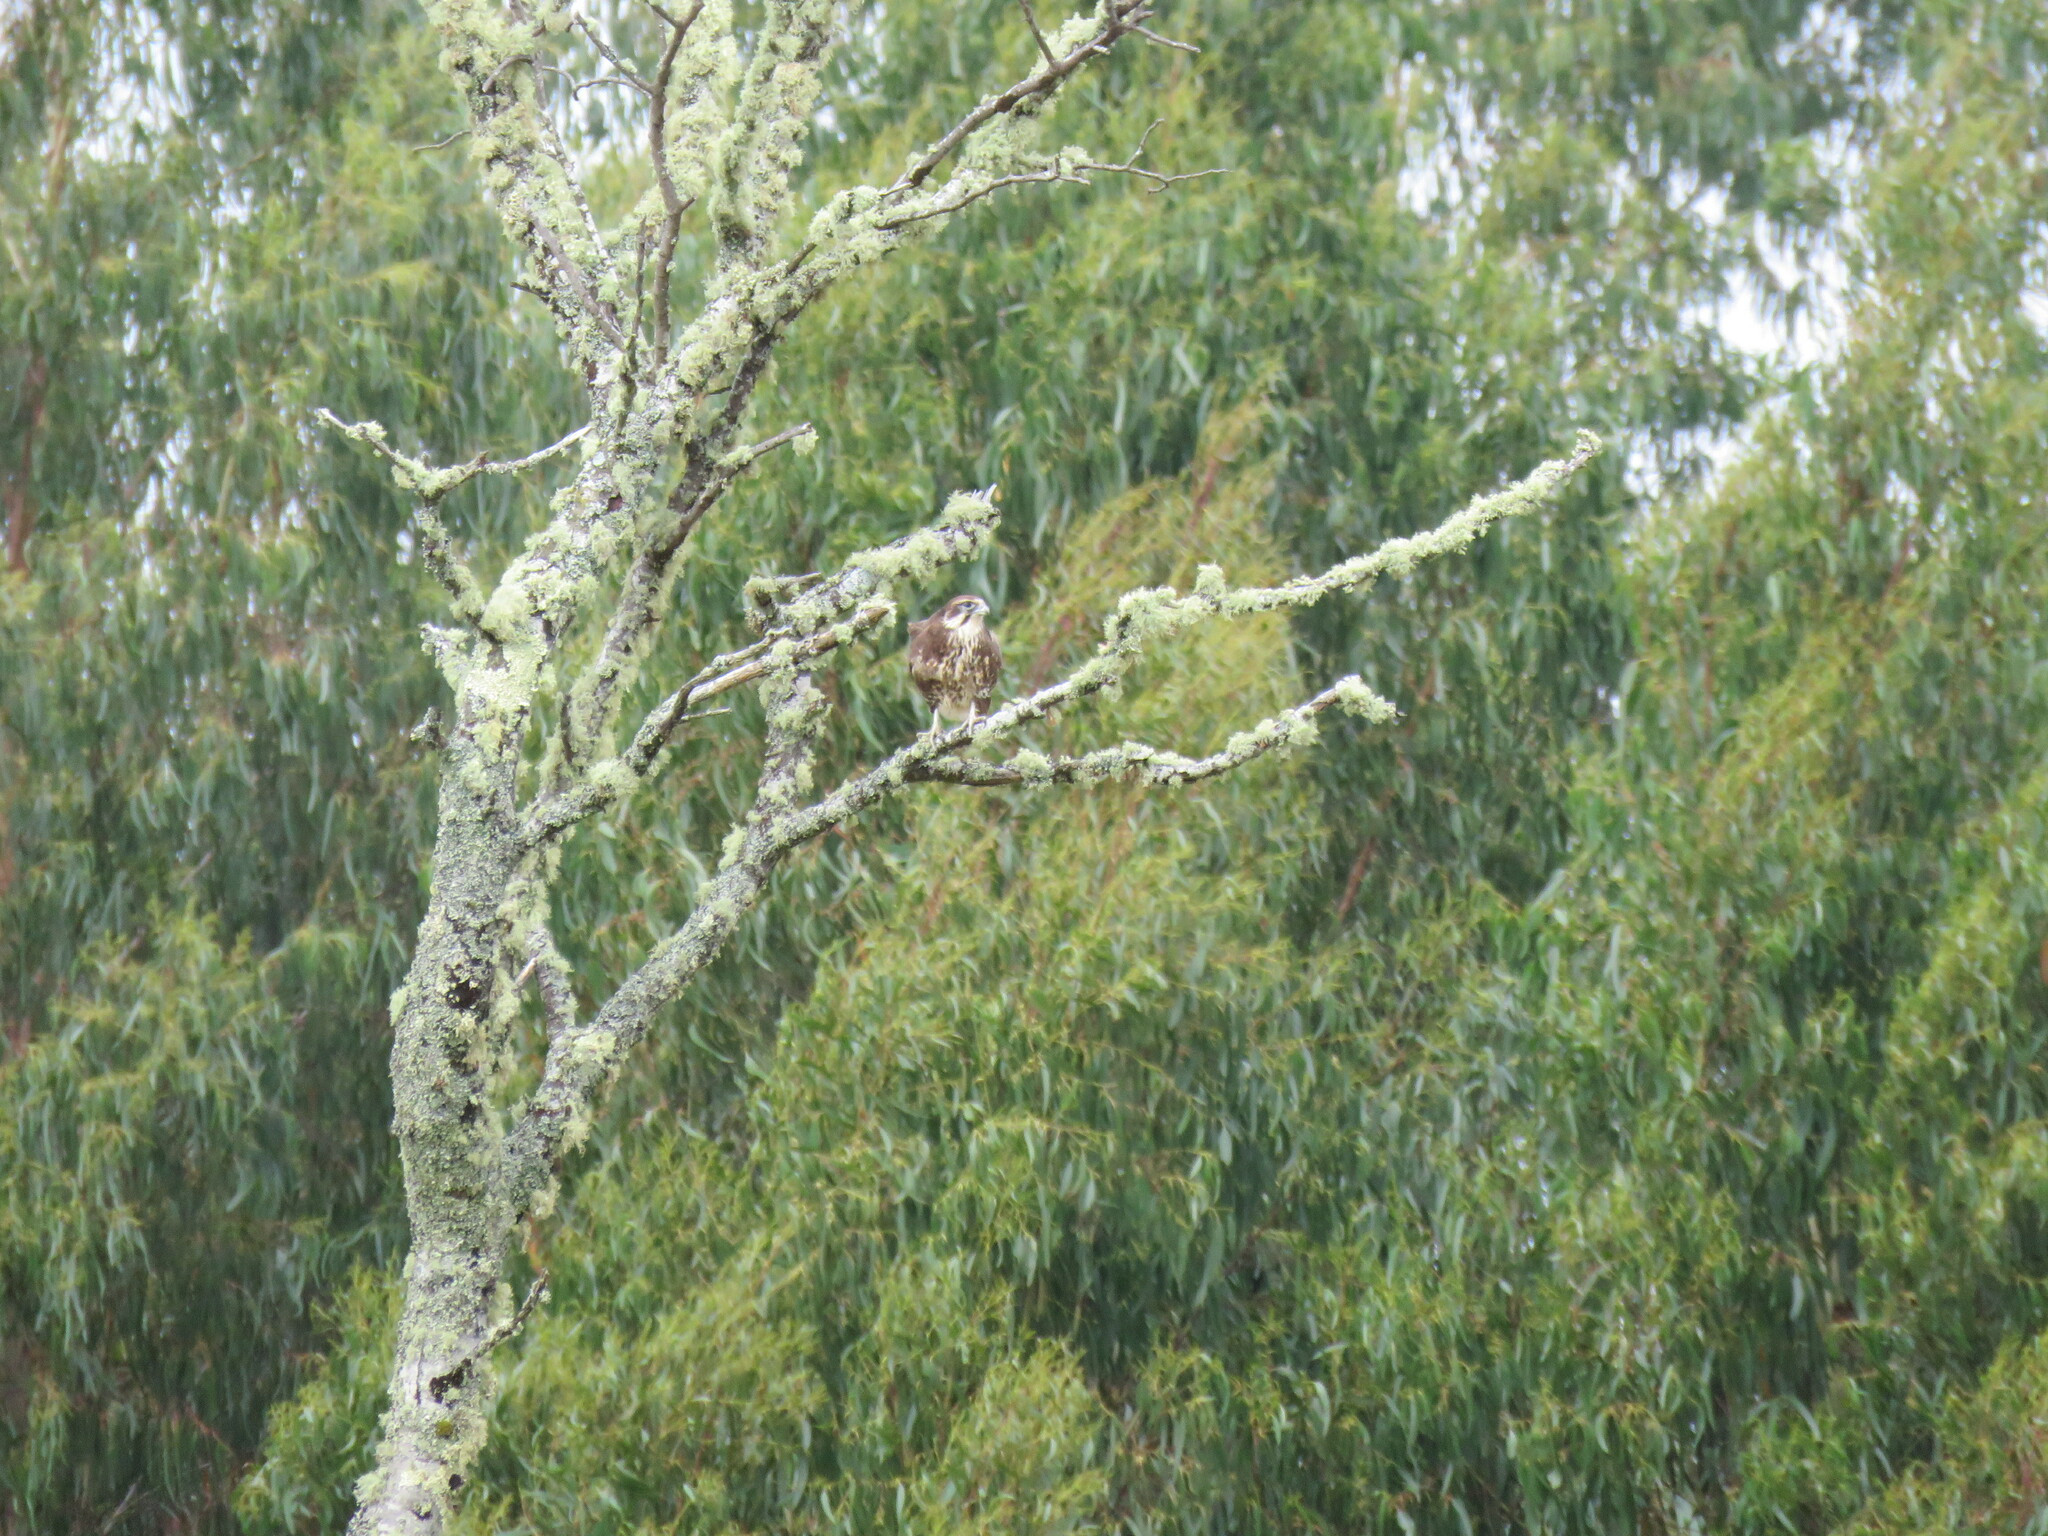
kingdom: Animalia
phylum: Chordata
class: Aves
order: Falconiformes
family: Falconidae
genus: Falco
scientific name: Falco berigora
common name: Brown falcon
